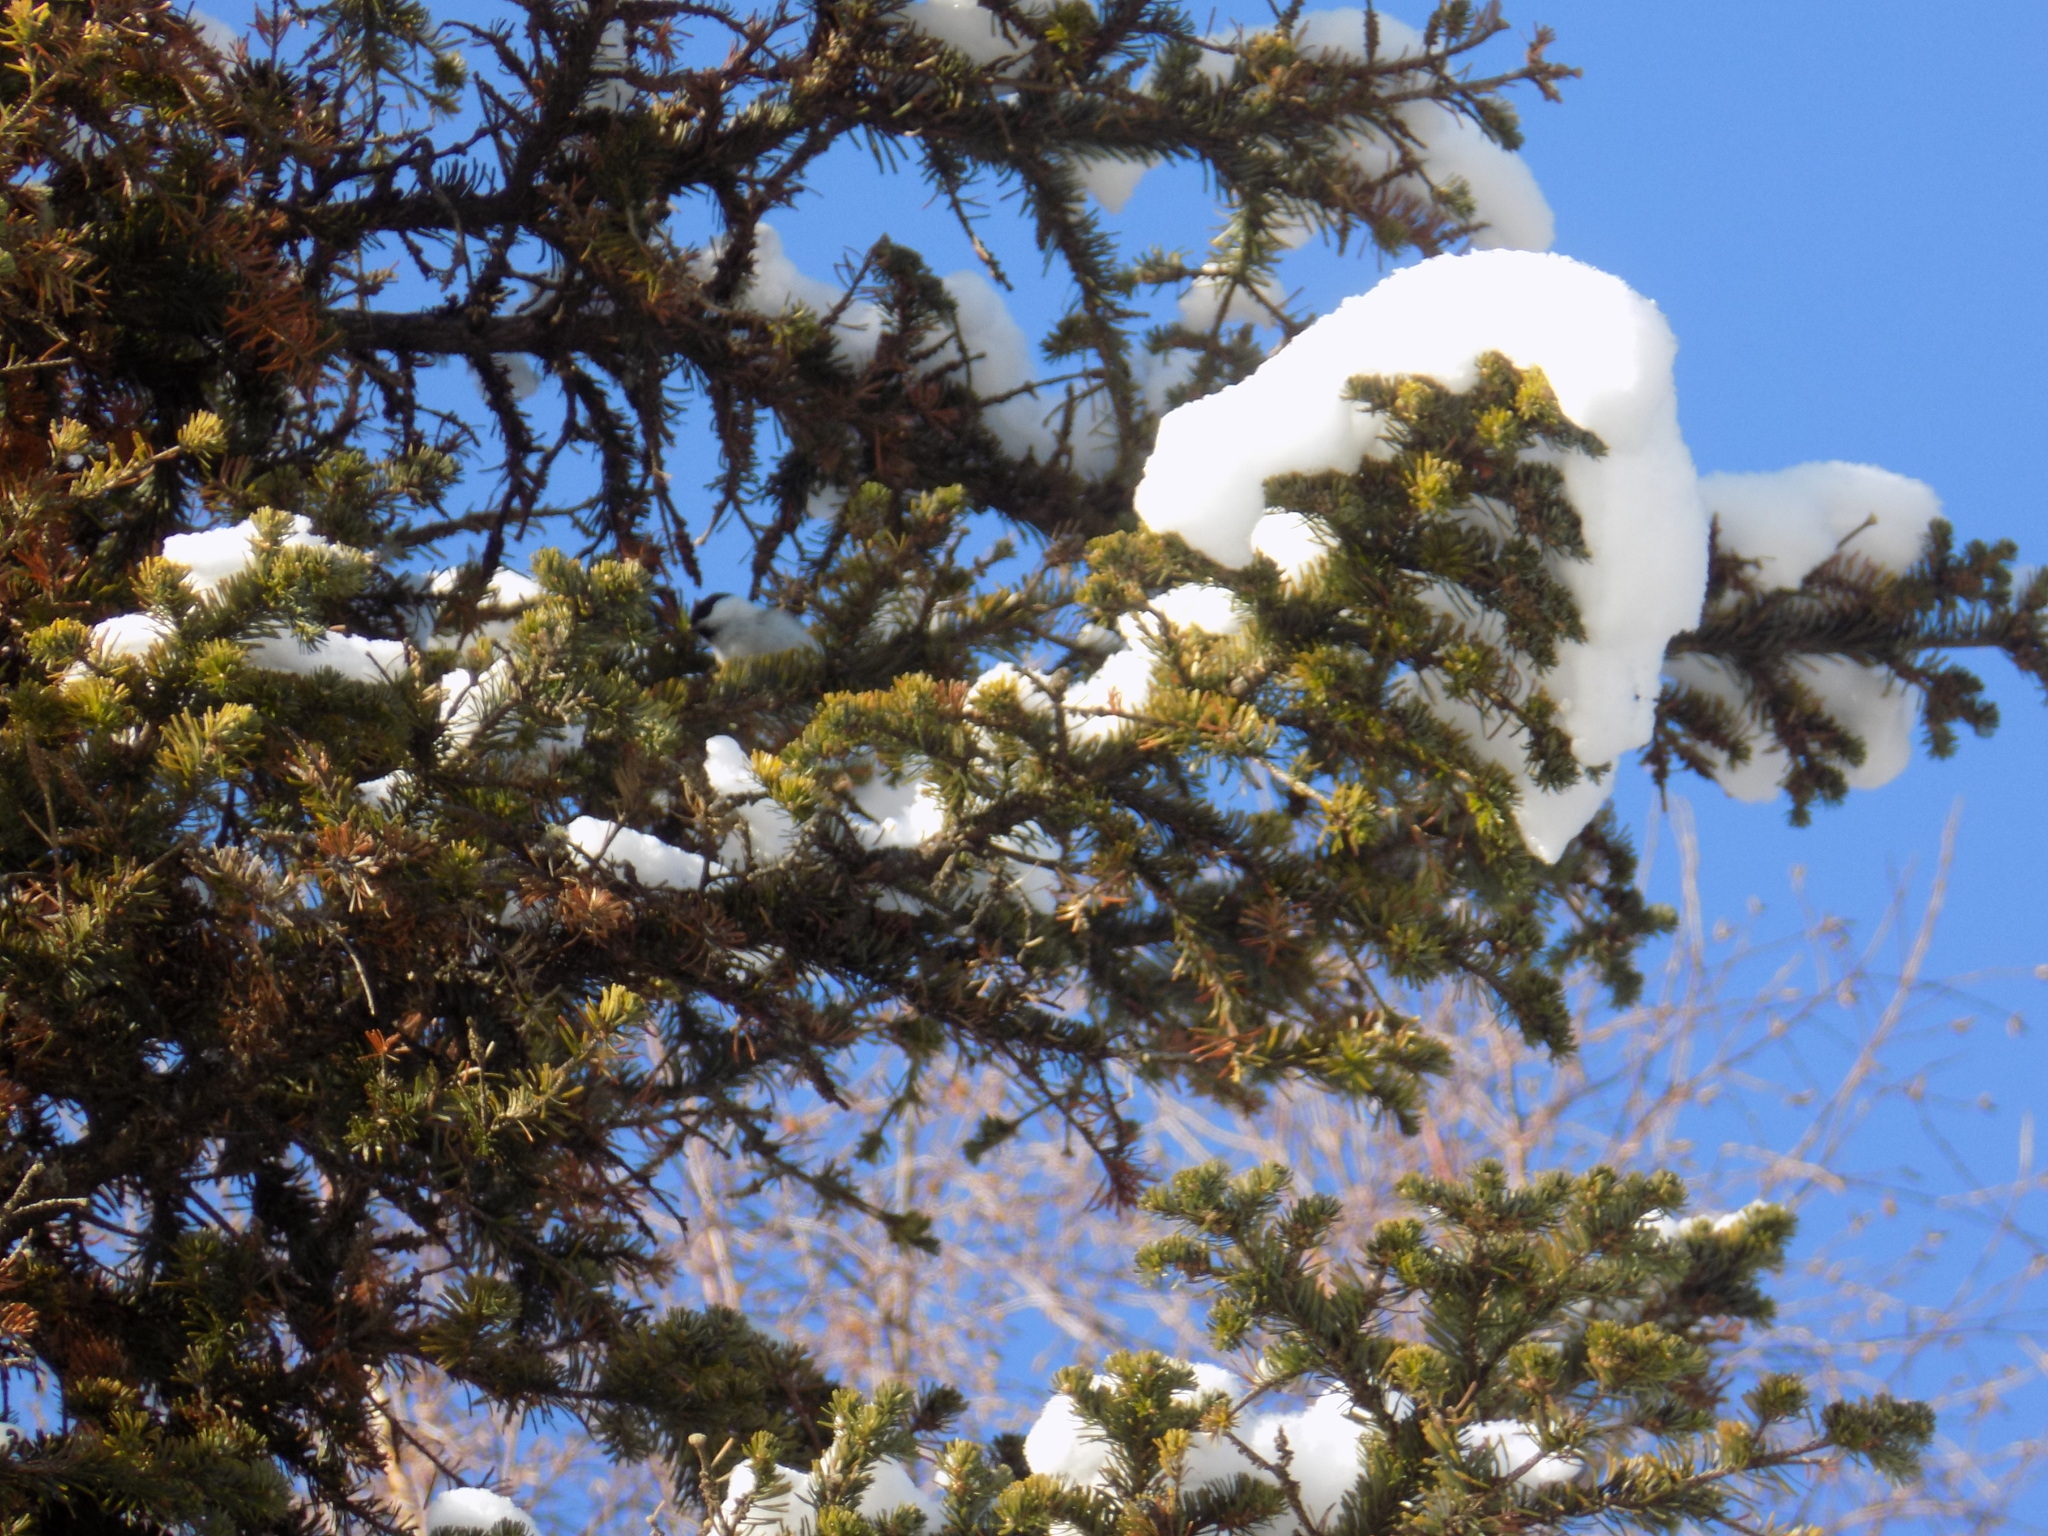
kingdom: Animalia
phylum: Chordata
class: Aves
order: Passeriformes
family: Paridae
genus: Poecile
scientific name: Poecile montanus
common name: Willow tit
